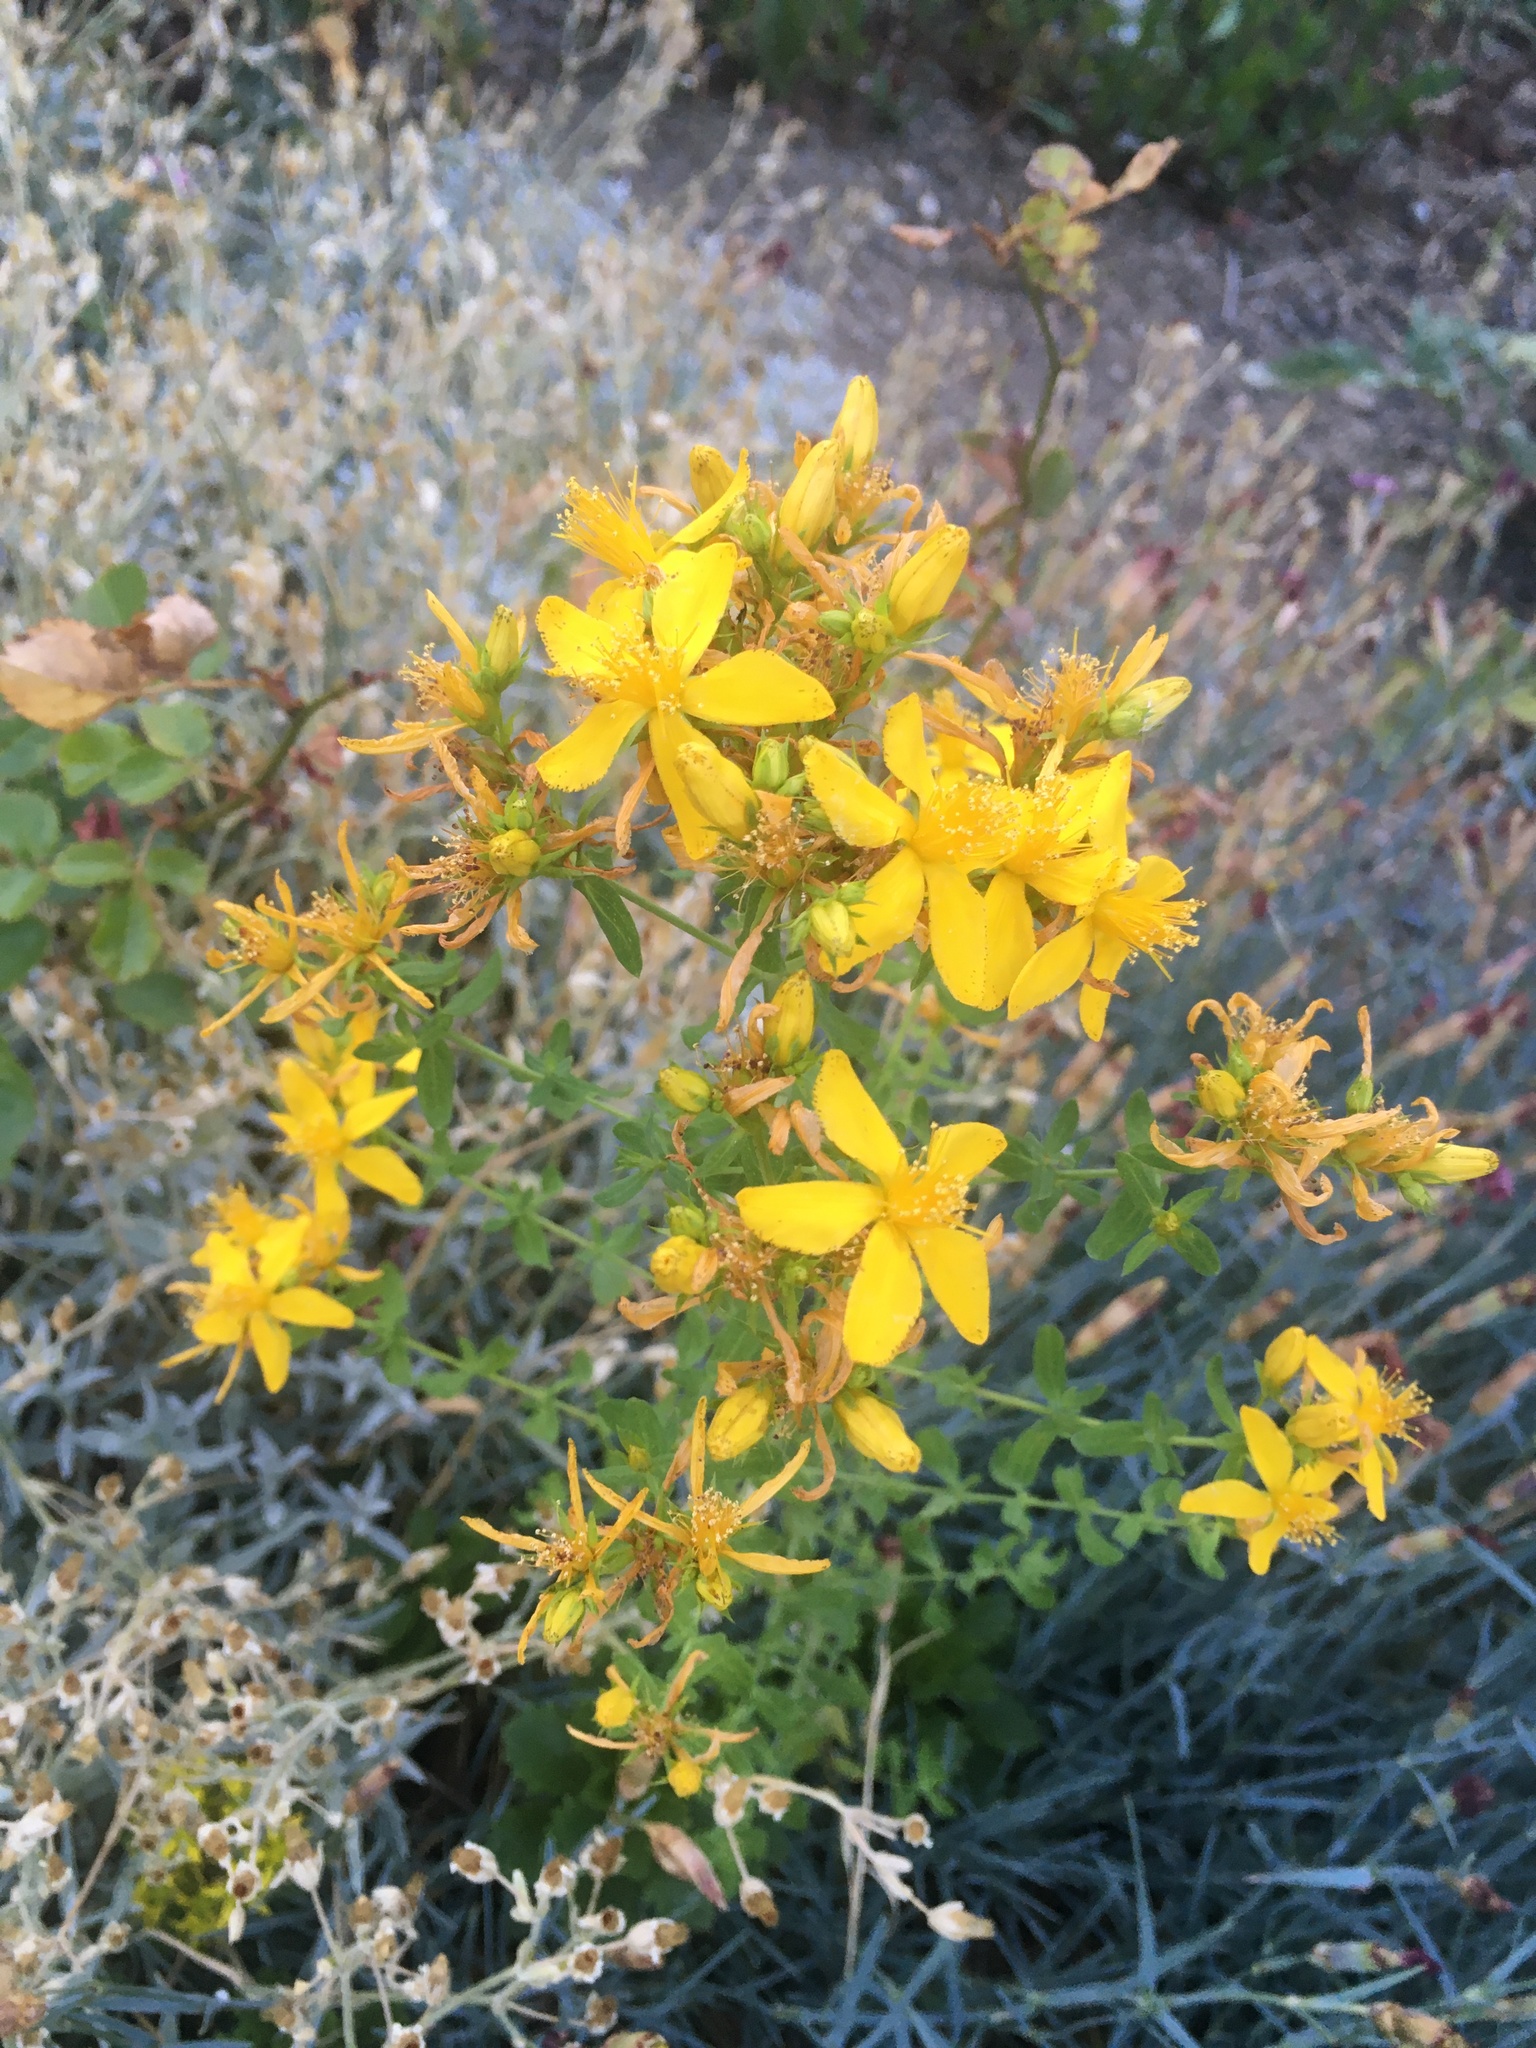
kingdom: Plantae
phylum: Tracheophyta
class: Magnoliopsida
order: Malpighiales
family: Hypericaceae
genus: Hypericum
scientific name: Hypericum perforatum
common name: Common st. johnswort
